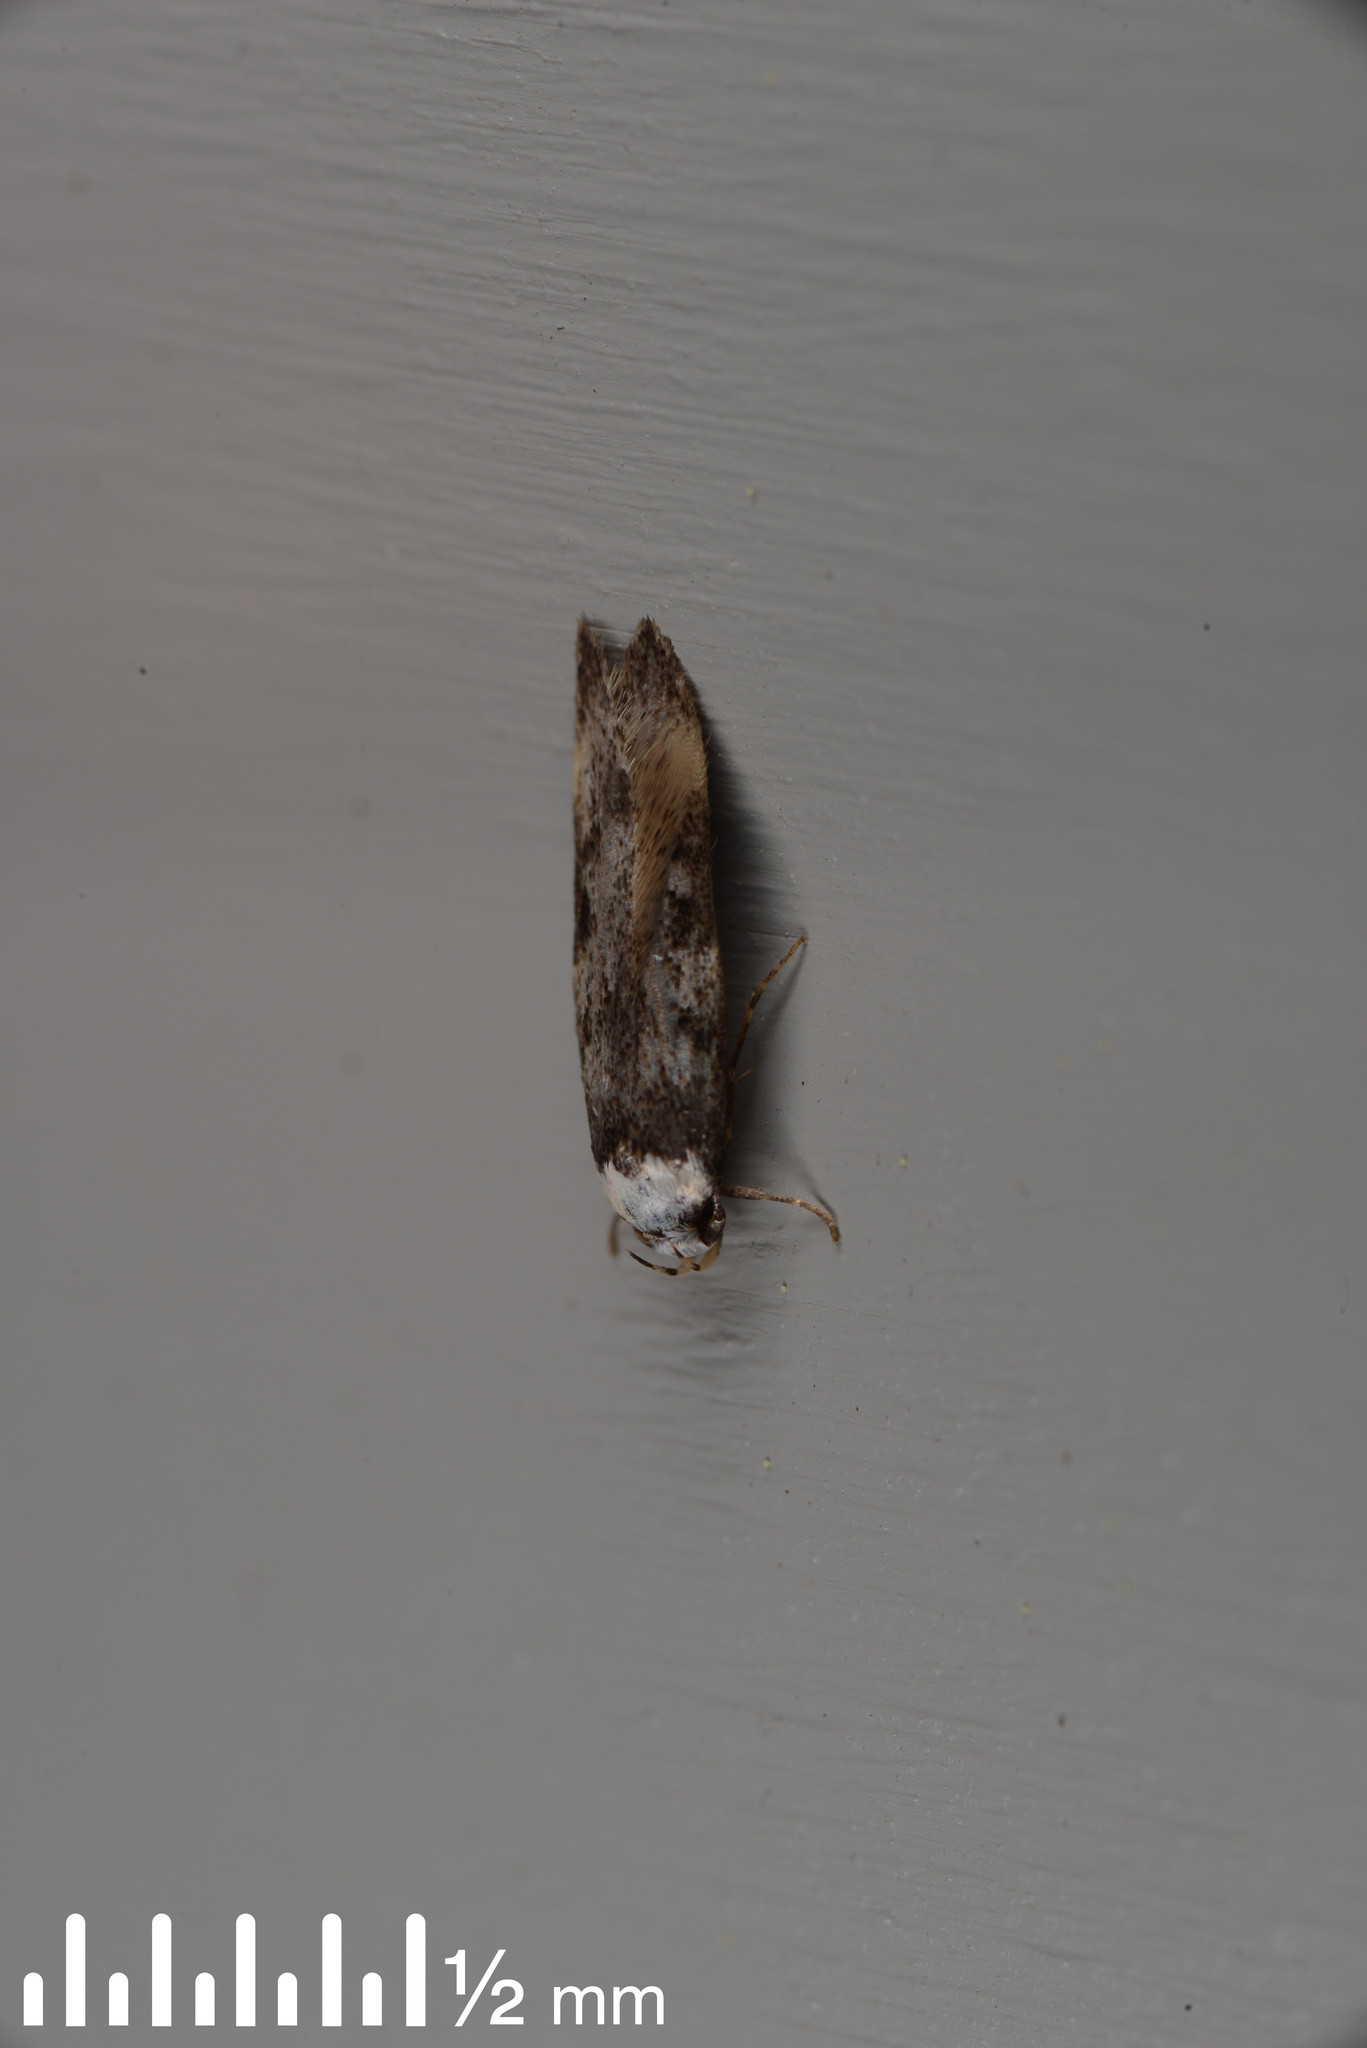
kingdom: Animalia
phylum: Arthropoda
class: Insecta
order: Lepidoptera
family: Oecophoridae
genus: Endrosis
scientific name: Endrosis sarcitrella
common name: White-shouldered house moth
